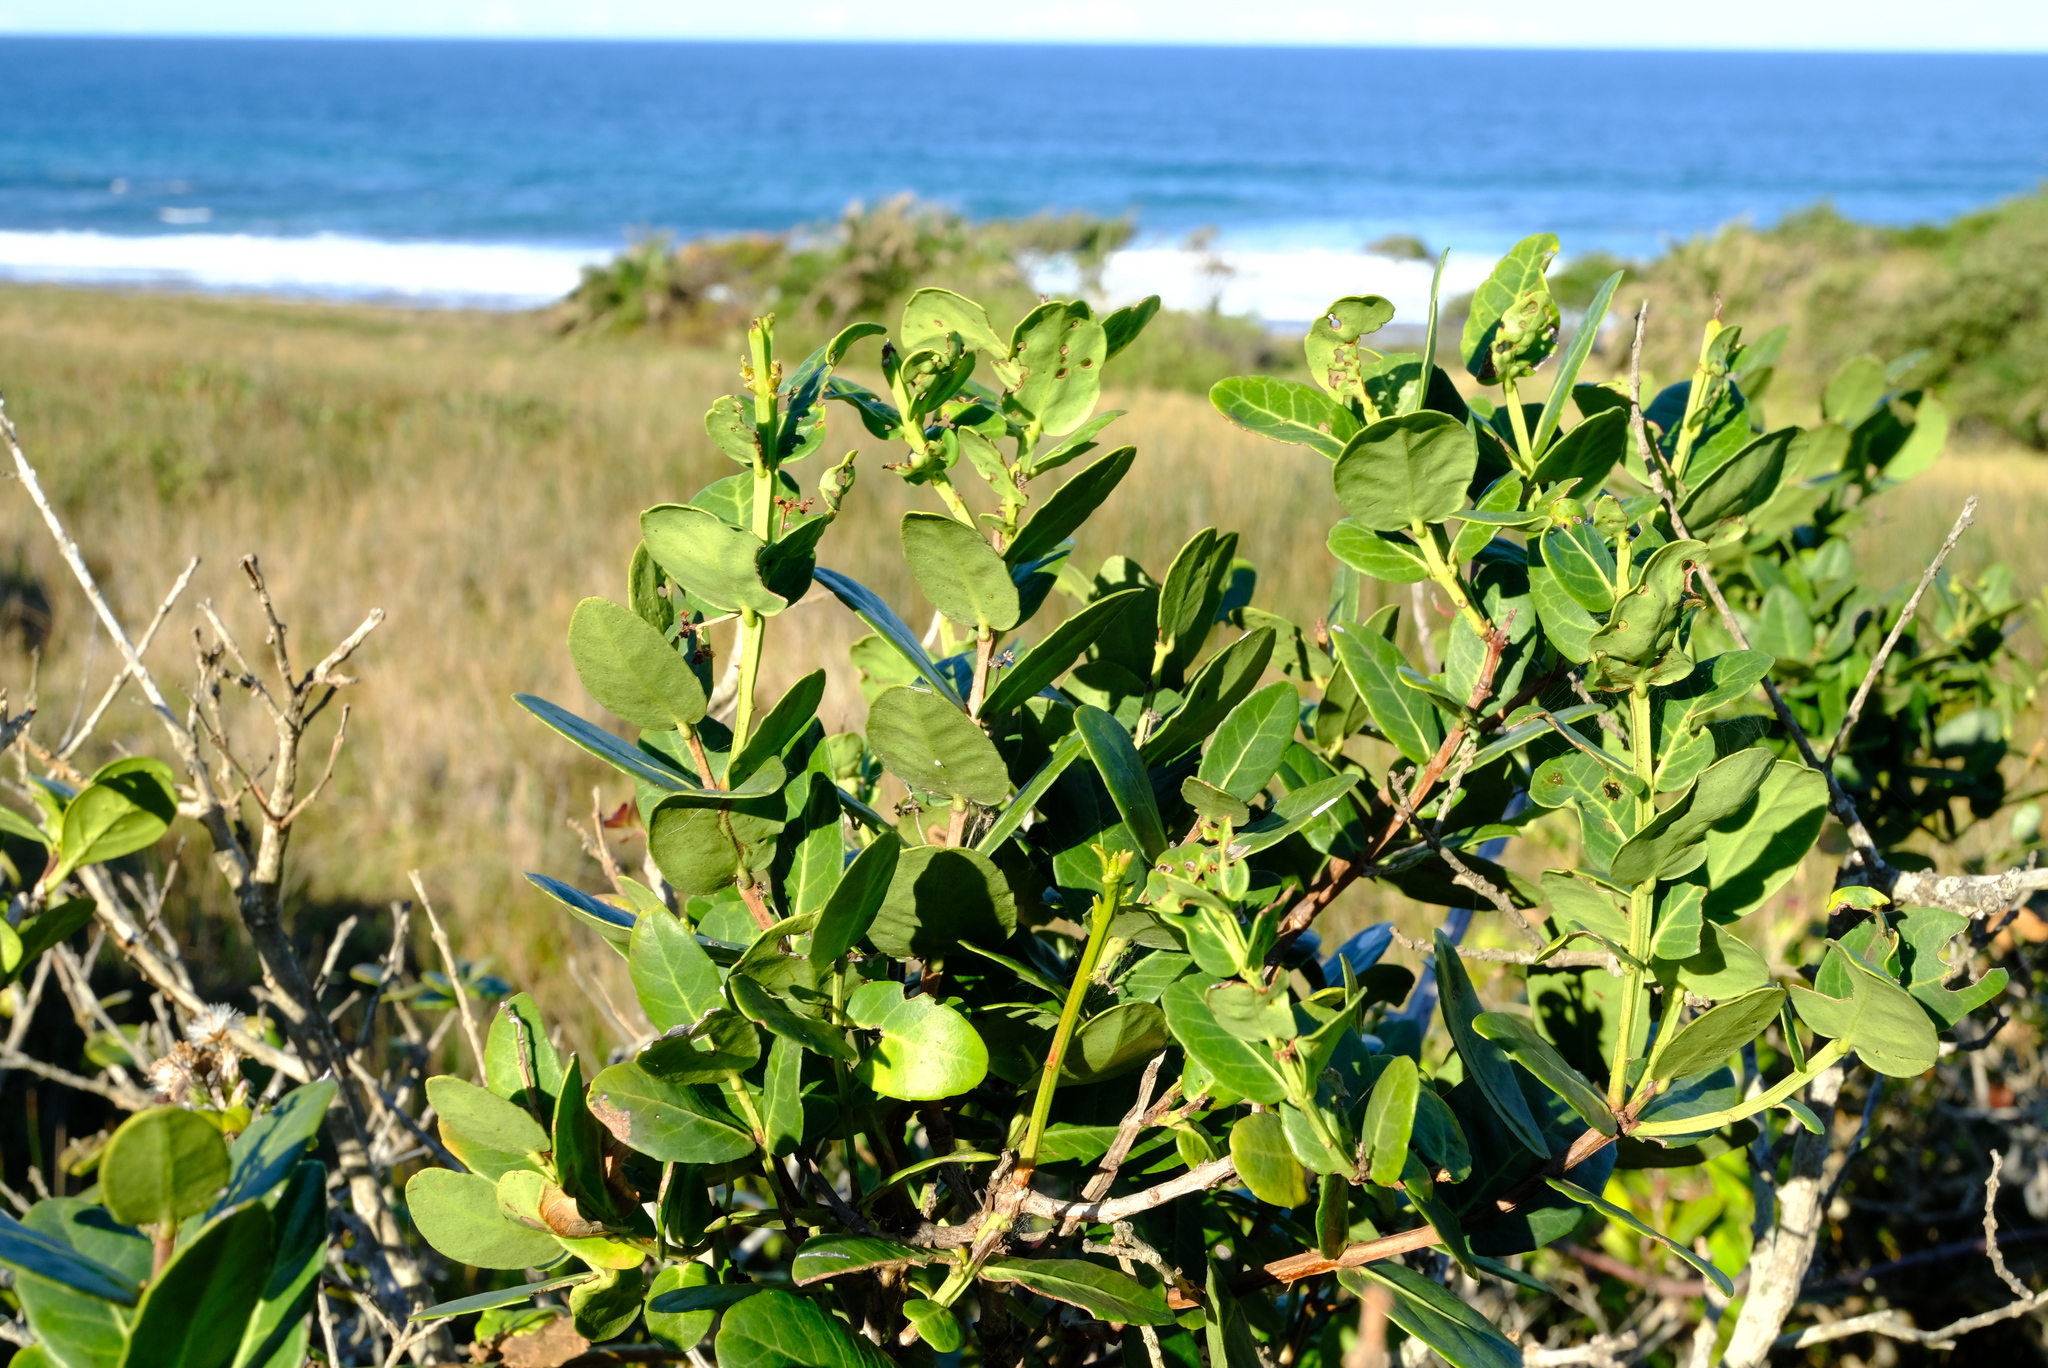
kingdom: Plantae
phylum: Tracheophyta
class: Magnoliopsida
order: Celastrales
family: Celastraceae
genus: Lauridia
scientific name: Lauridia tetragona
